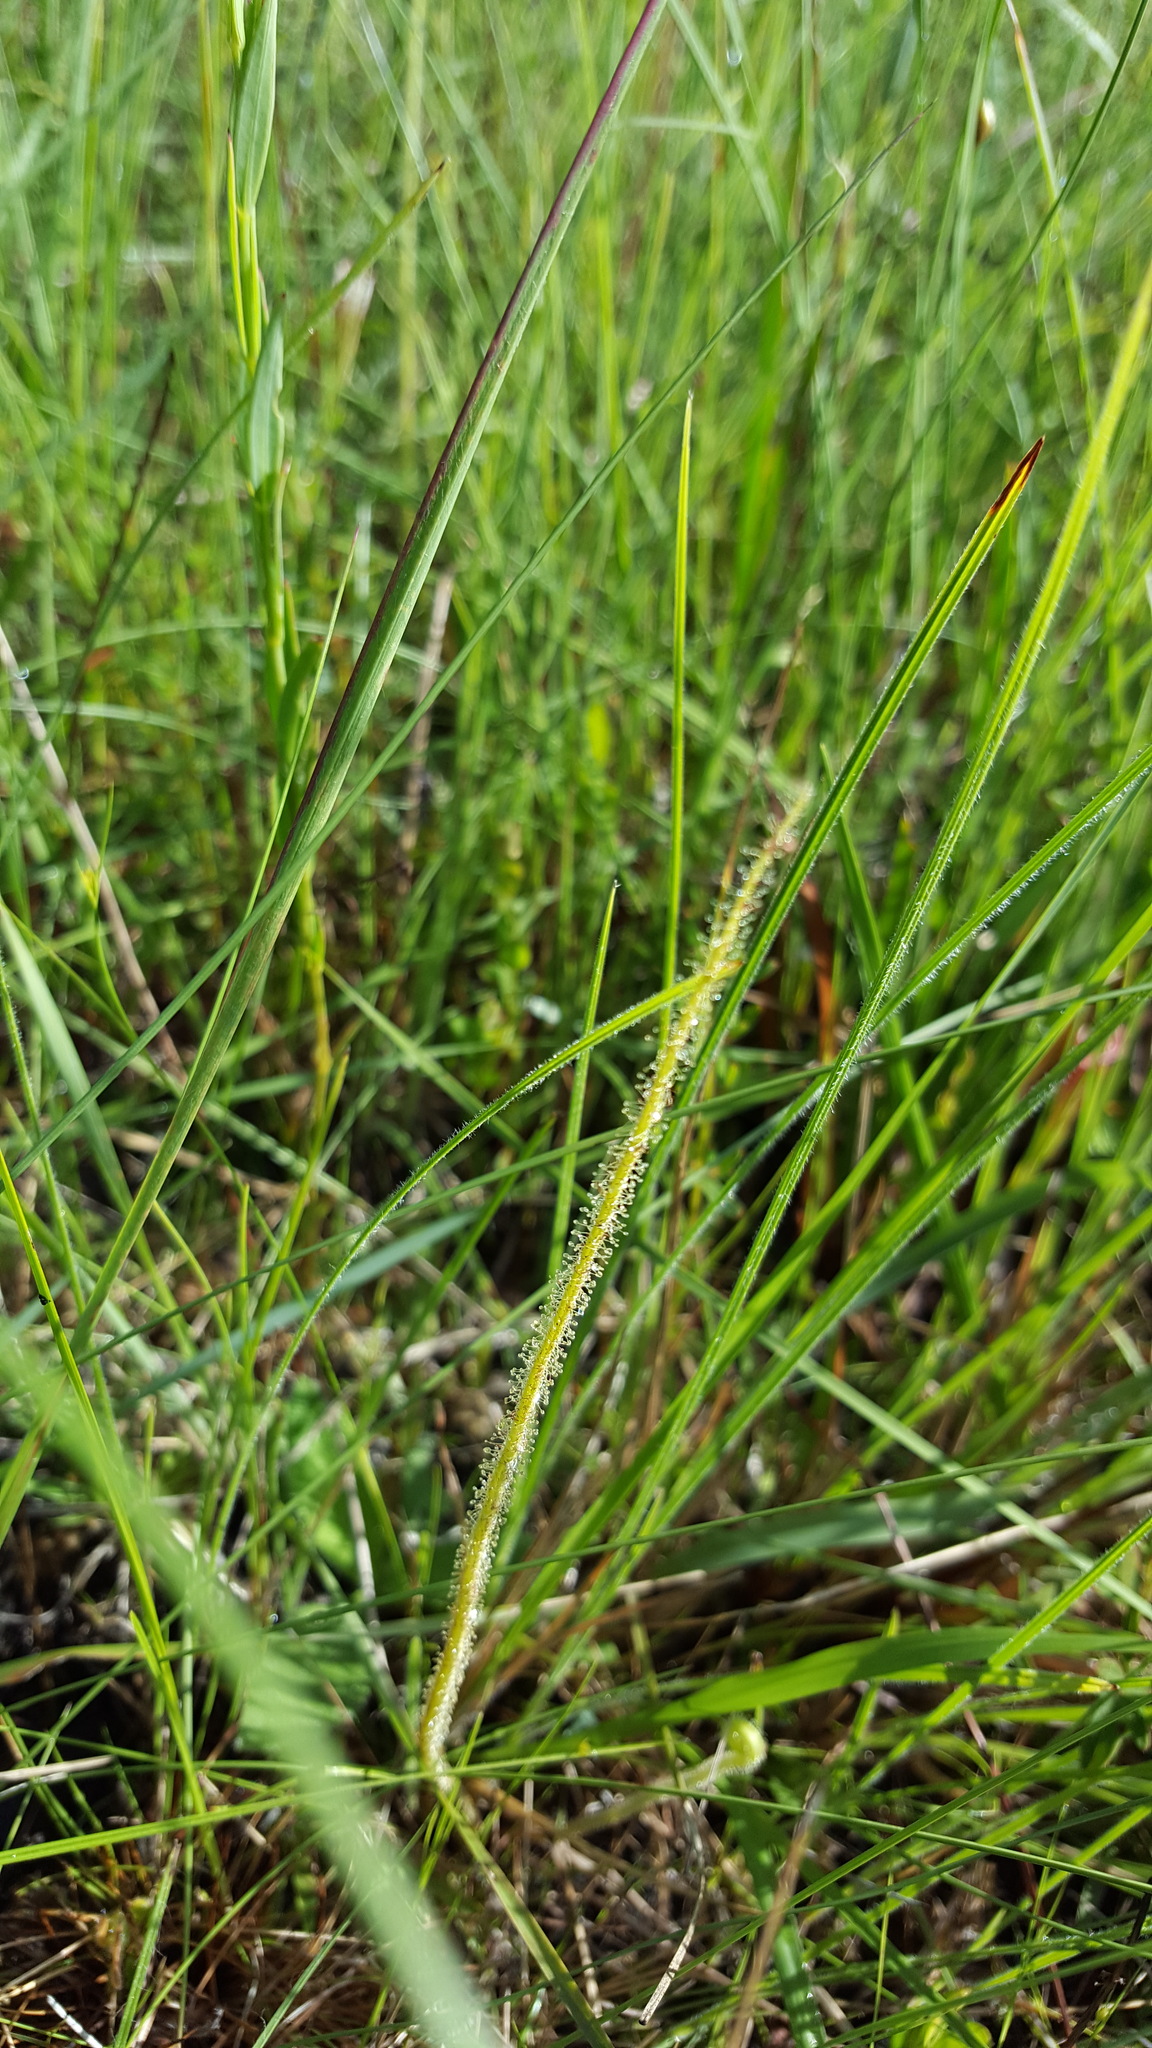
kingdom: Plantae
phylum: Tracheophyta
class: Magnoliopsida
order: Caryophyllales
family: Droseraceae
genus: Drosera
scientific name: Drosera filiformis
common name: Dew-thread
